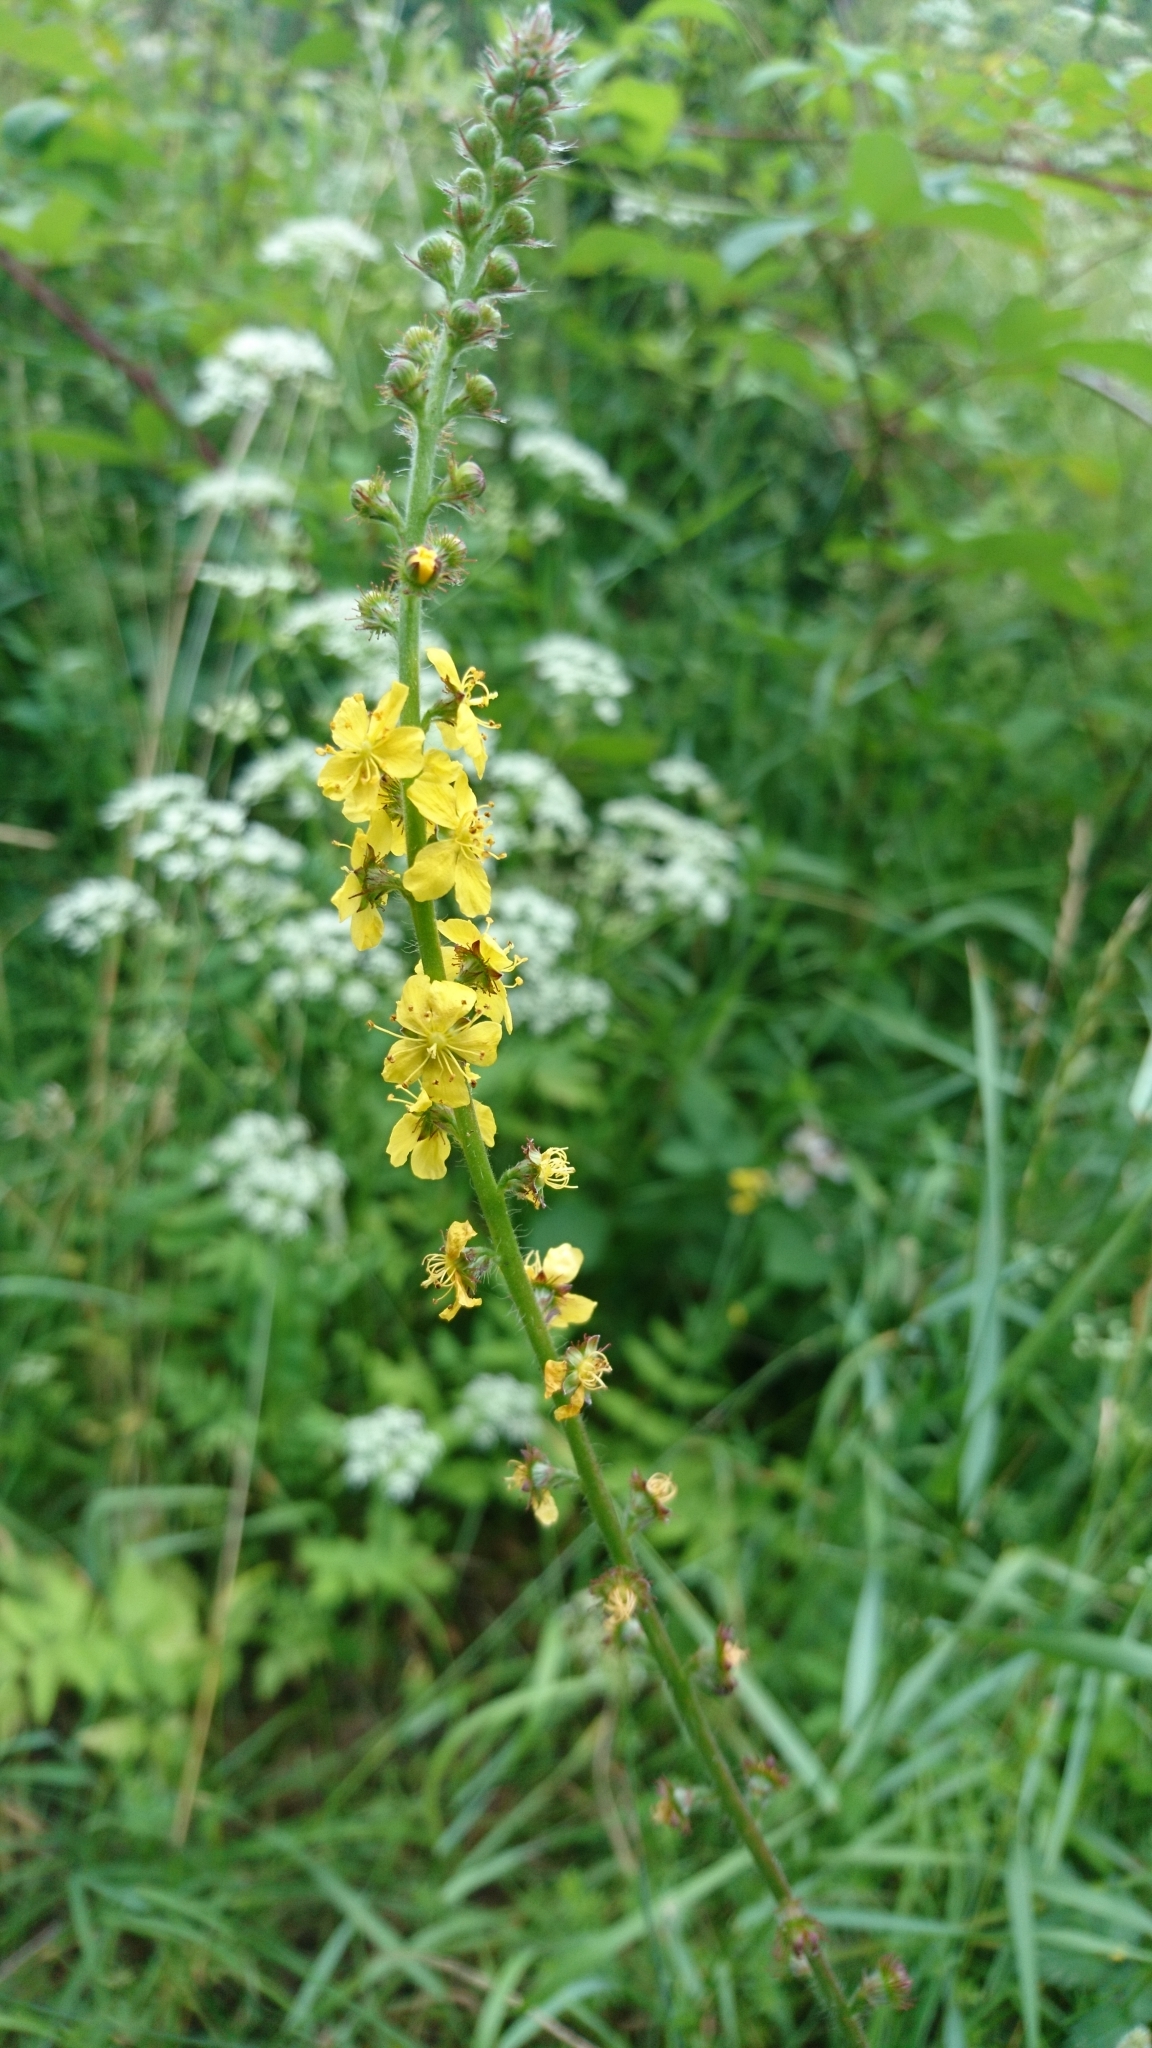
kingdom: Plantae
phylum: Tracheophyta
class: Magnoliopsida
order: Rosales
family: Rosaceae
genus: Agrimonia
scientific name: Agrimonia eupatoria
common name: Agrimony
